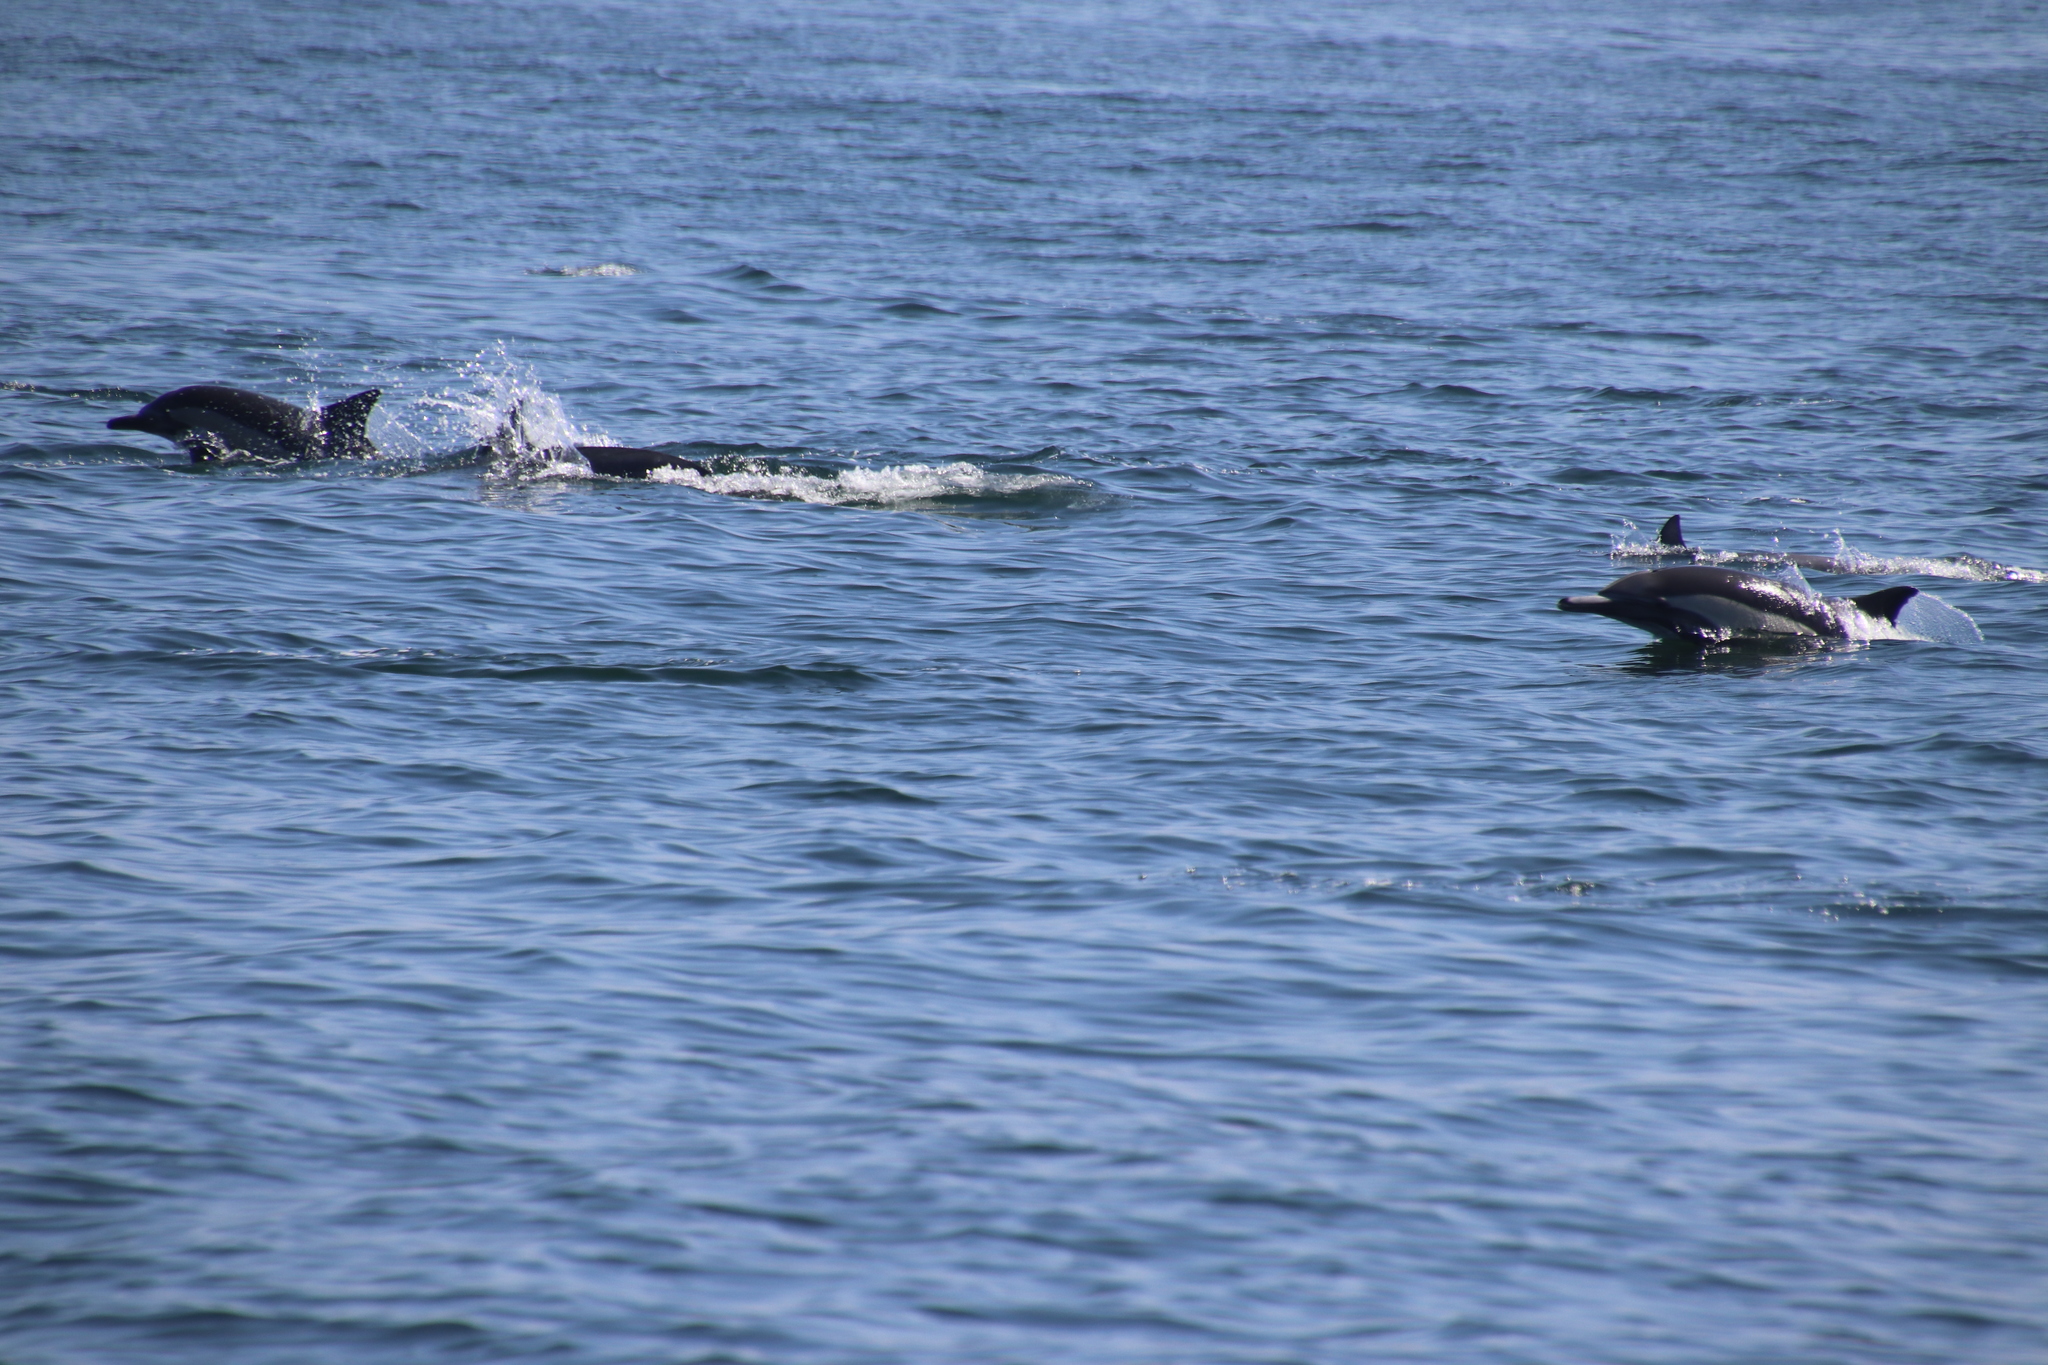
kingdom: Animalia
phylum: Chordata
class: Mammalia
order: Cetacea
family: Delphinidae
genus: Delphinus
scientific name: Delphinus delphis
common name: Common dolphin
